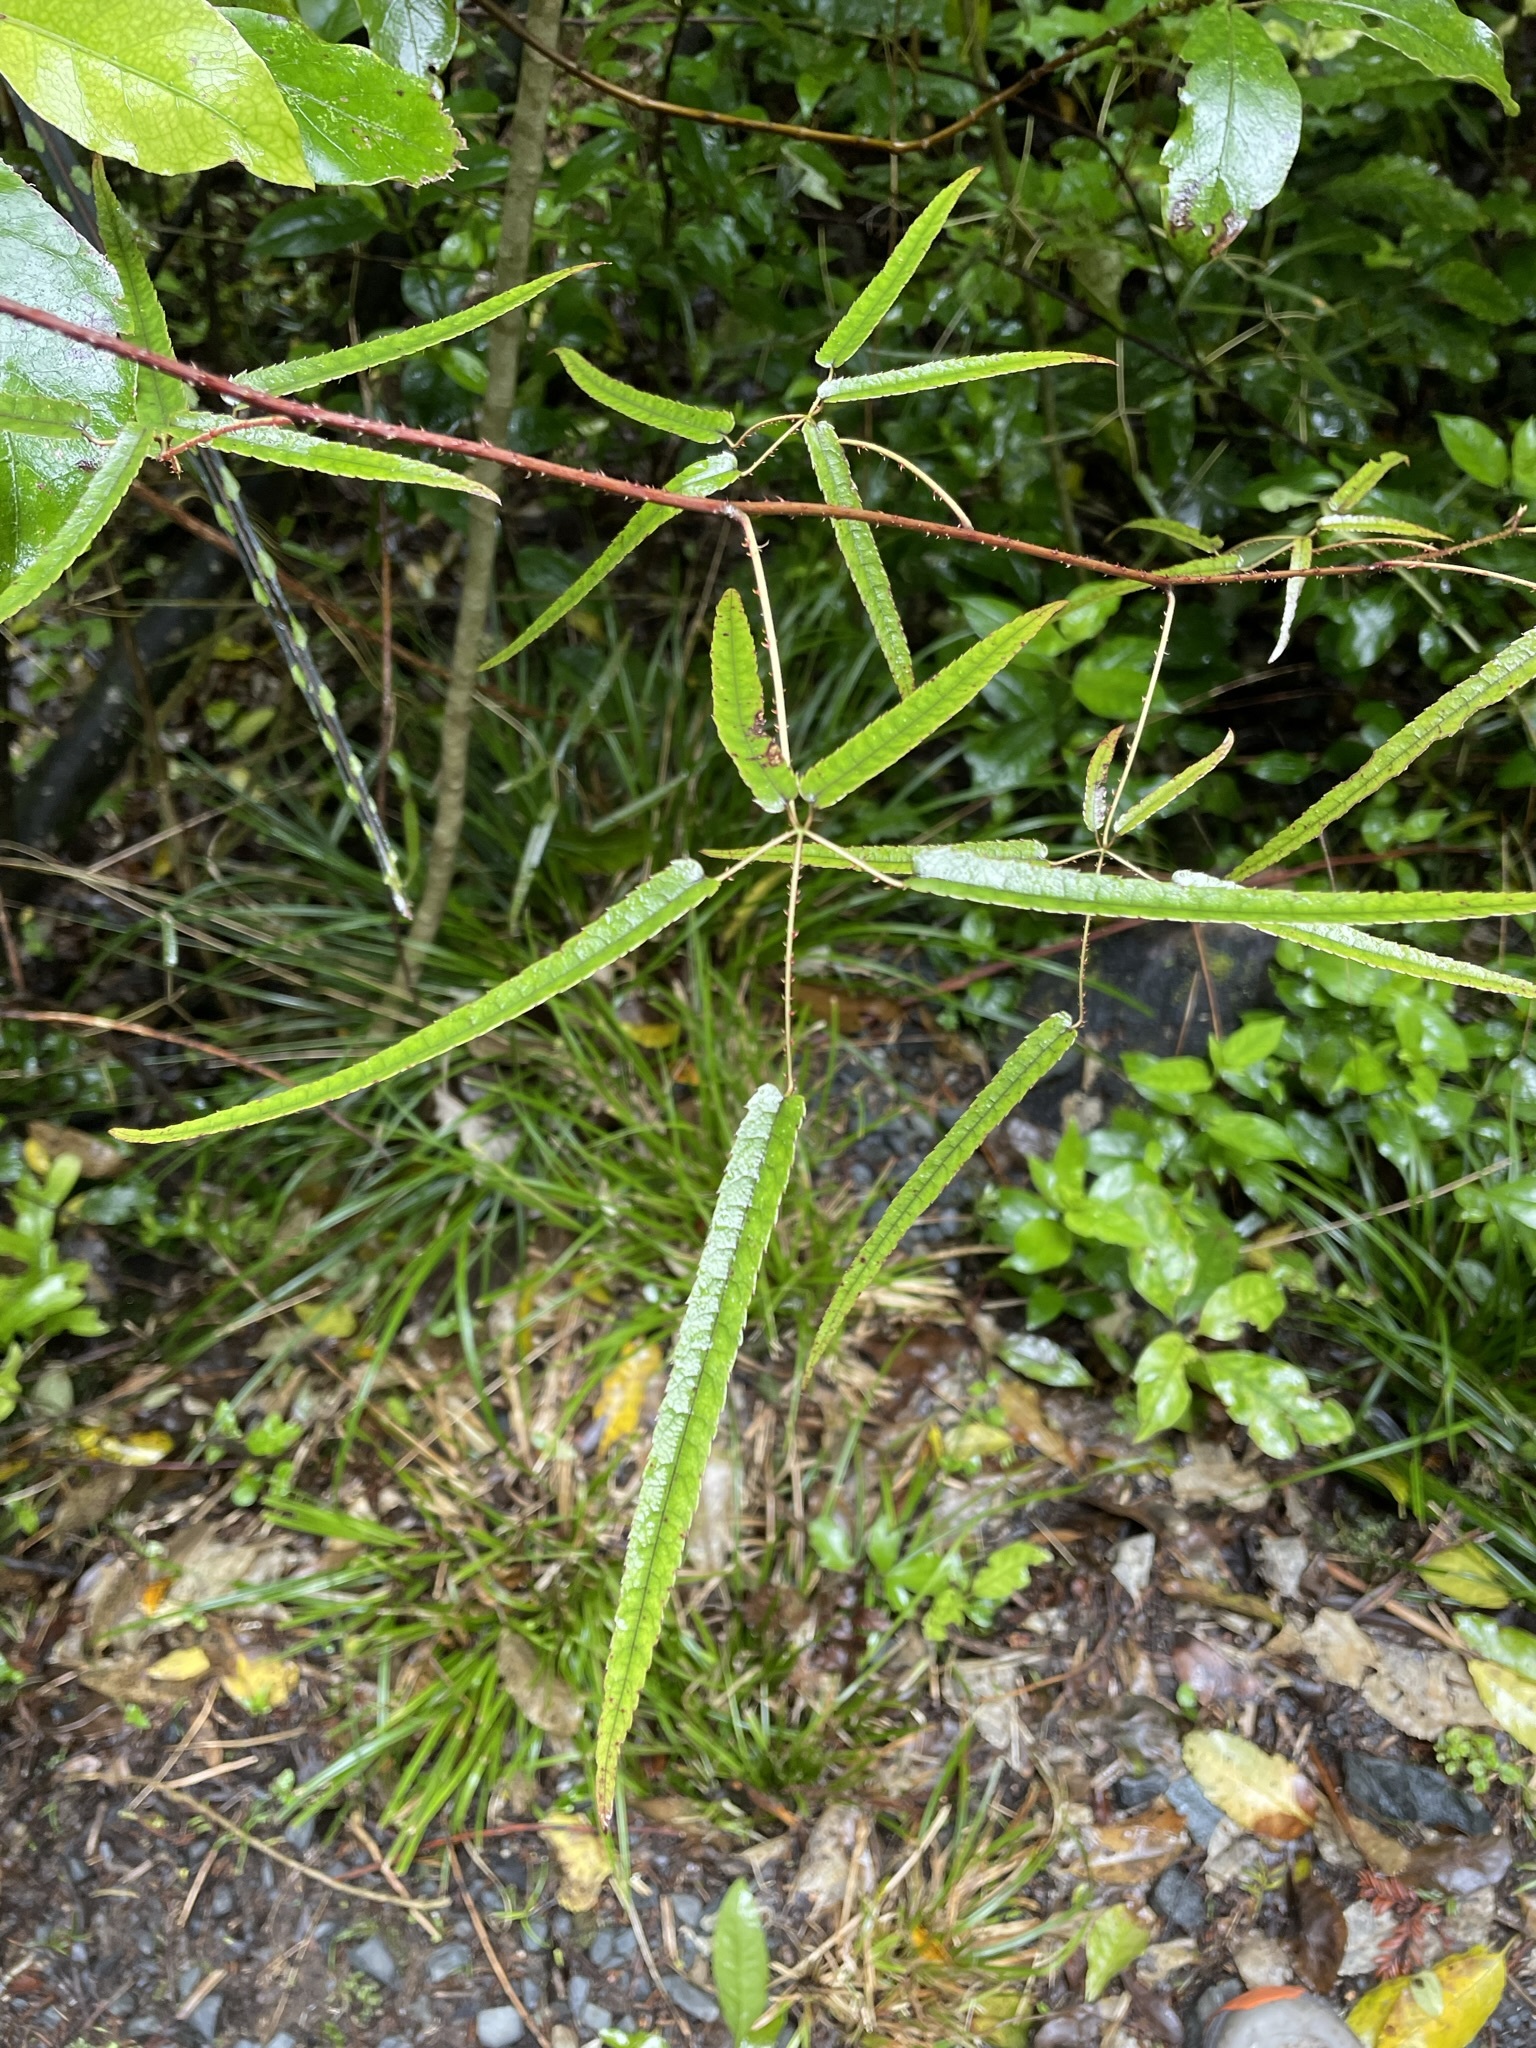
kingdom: Plantae
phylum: Tracheophyta
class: Magnoliopsida
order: Rosales
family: Rosaceae
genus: Rubus
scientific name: Rubus cissoides
